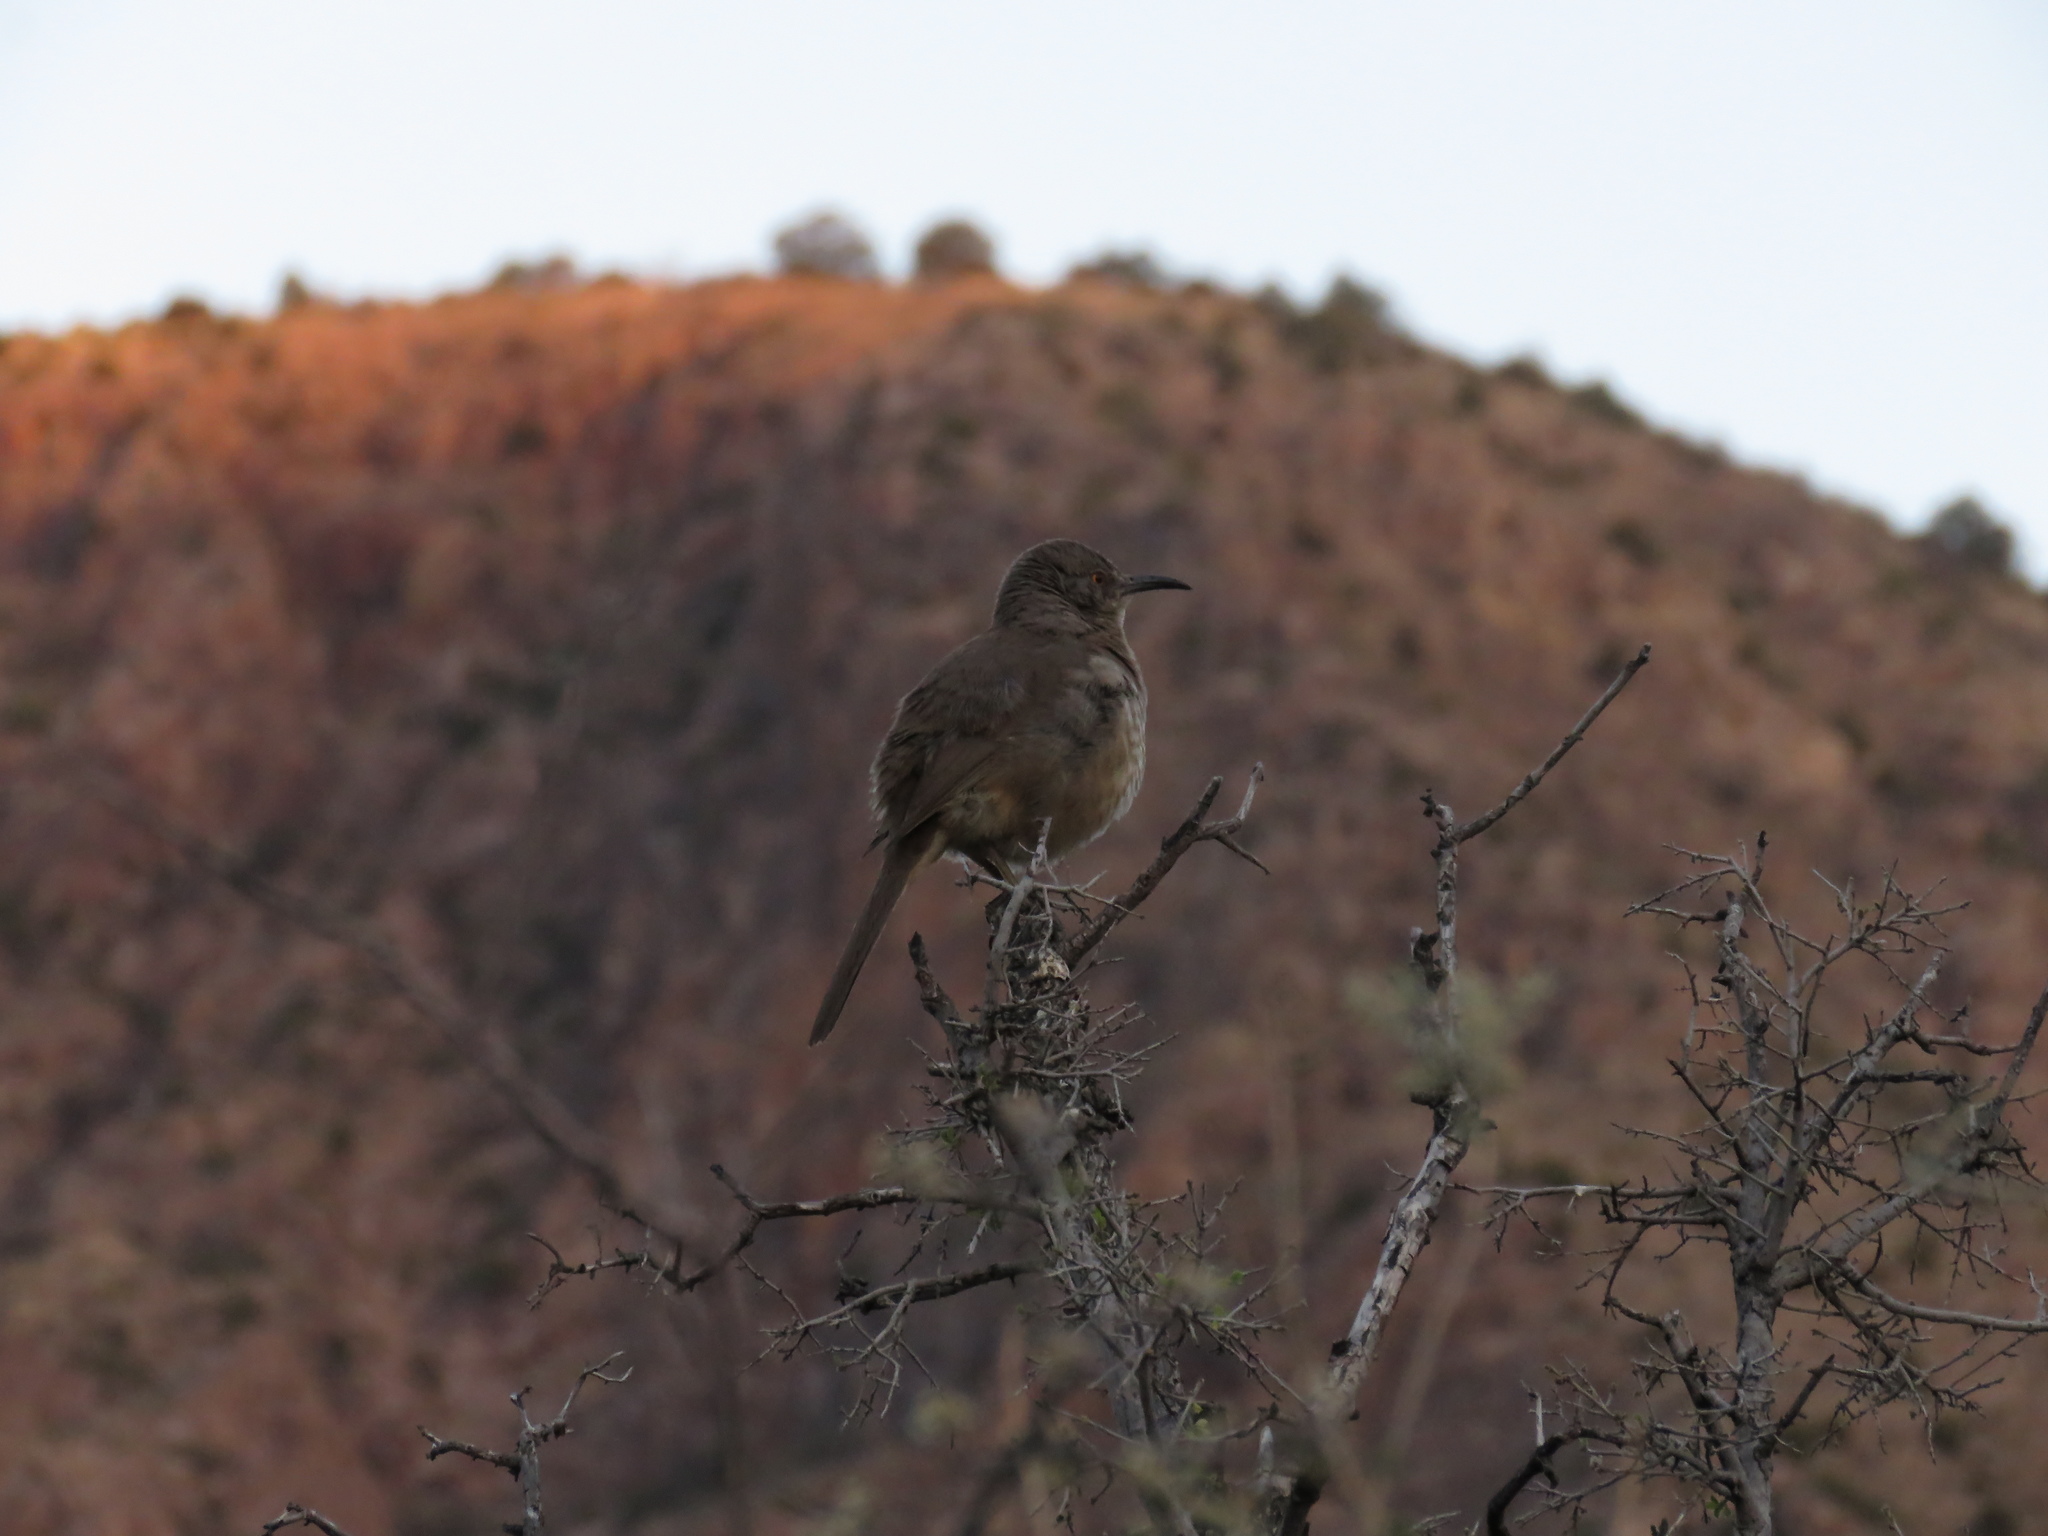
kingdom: Animalia
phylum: Chordata
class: Aves
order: Passeriformes
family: Mimidae
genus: Toxostoma
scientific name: Toxostoma curvirostre
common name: Curve-billed thrasher
